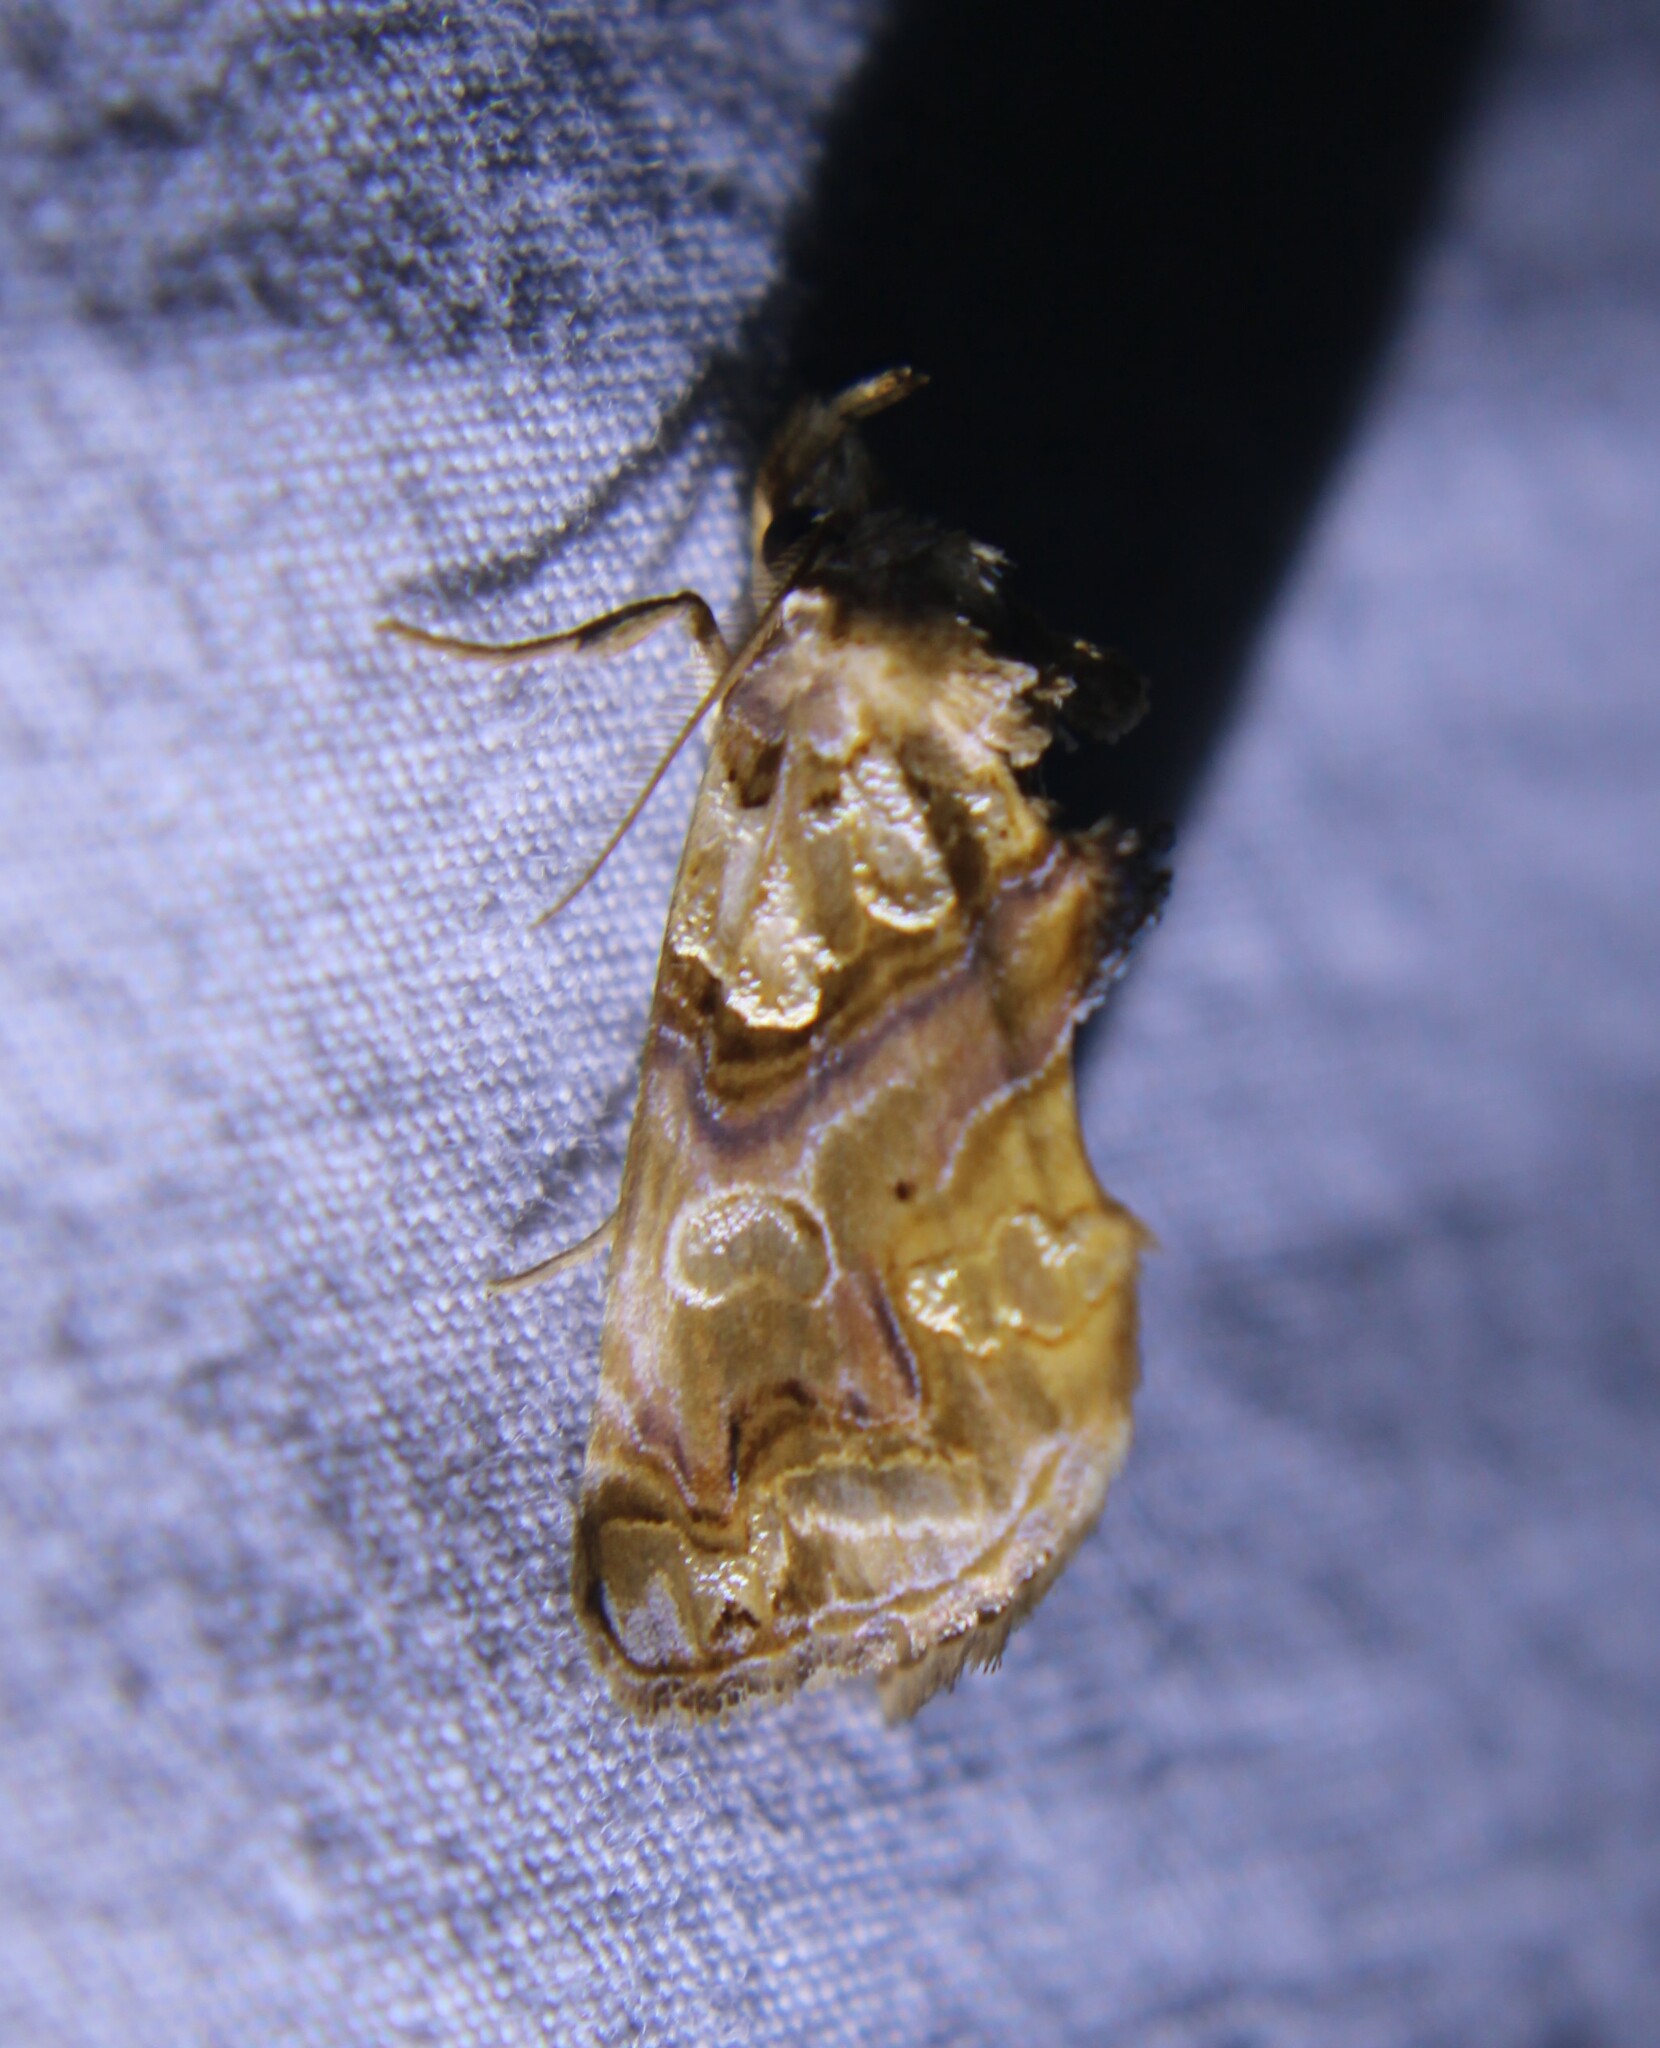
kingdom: Animalia
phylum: Arthropoda
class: Insecta
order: Lepidoptera
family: Erebidae
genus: Plusiodonta
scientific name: Plusiodonta compressipalpis
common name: Moonseed moth
